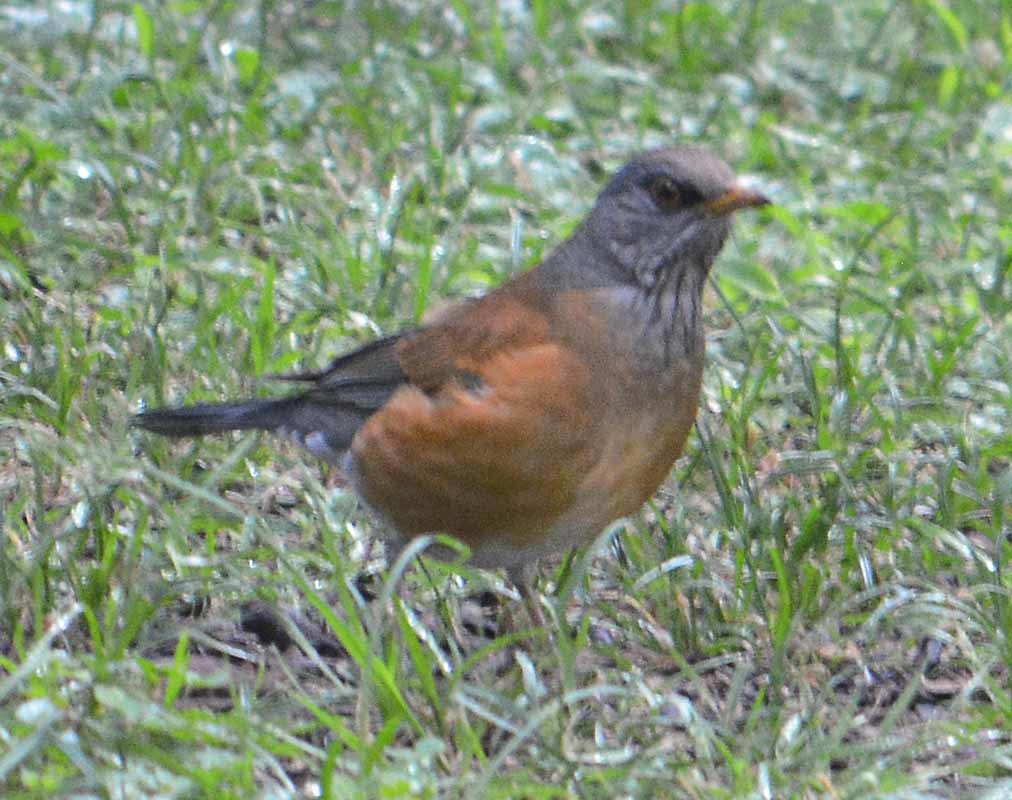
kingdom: Animalia
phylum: Chordata
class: Aves
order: Passeriformes
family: Turdidae
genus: Turdus
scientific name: Turdus rufopalliatus
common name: Rufous-backed robin
